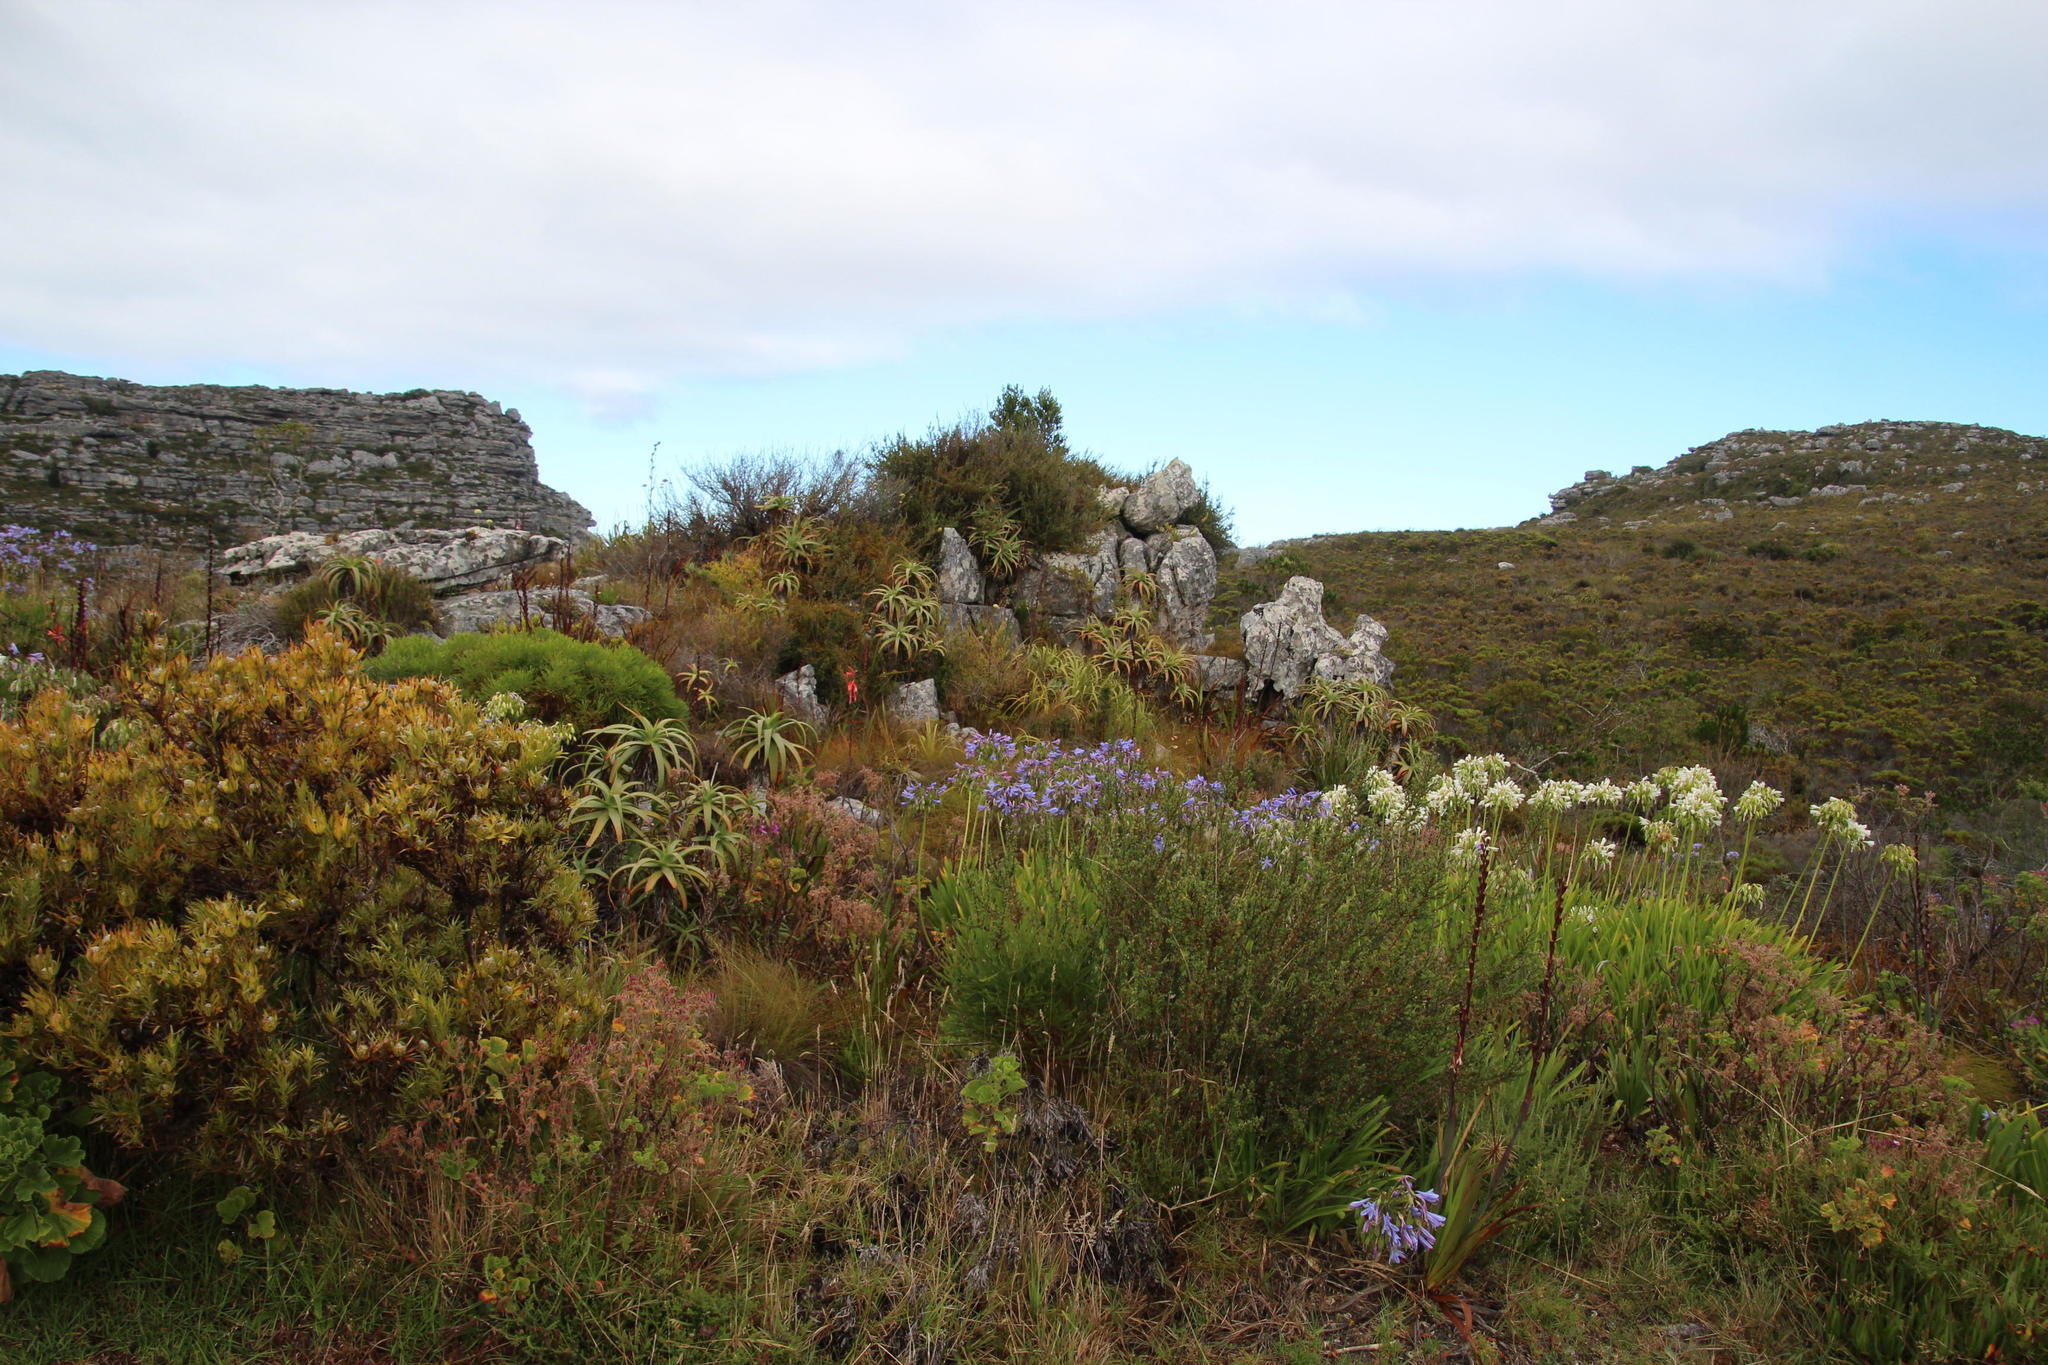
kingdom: Plantae
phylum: Tracheophyta
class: Liliopsida
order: Asparagales
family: Asphodelaceae
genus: Aloe
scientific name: Aloe arborescens
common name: Candelabra aloe
